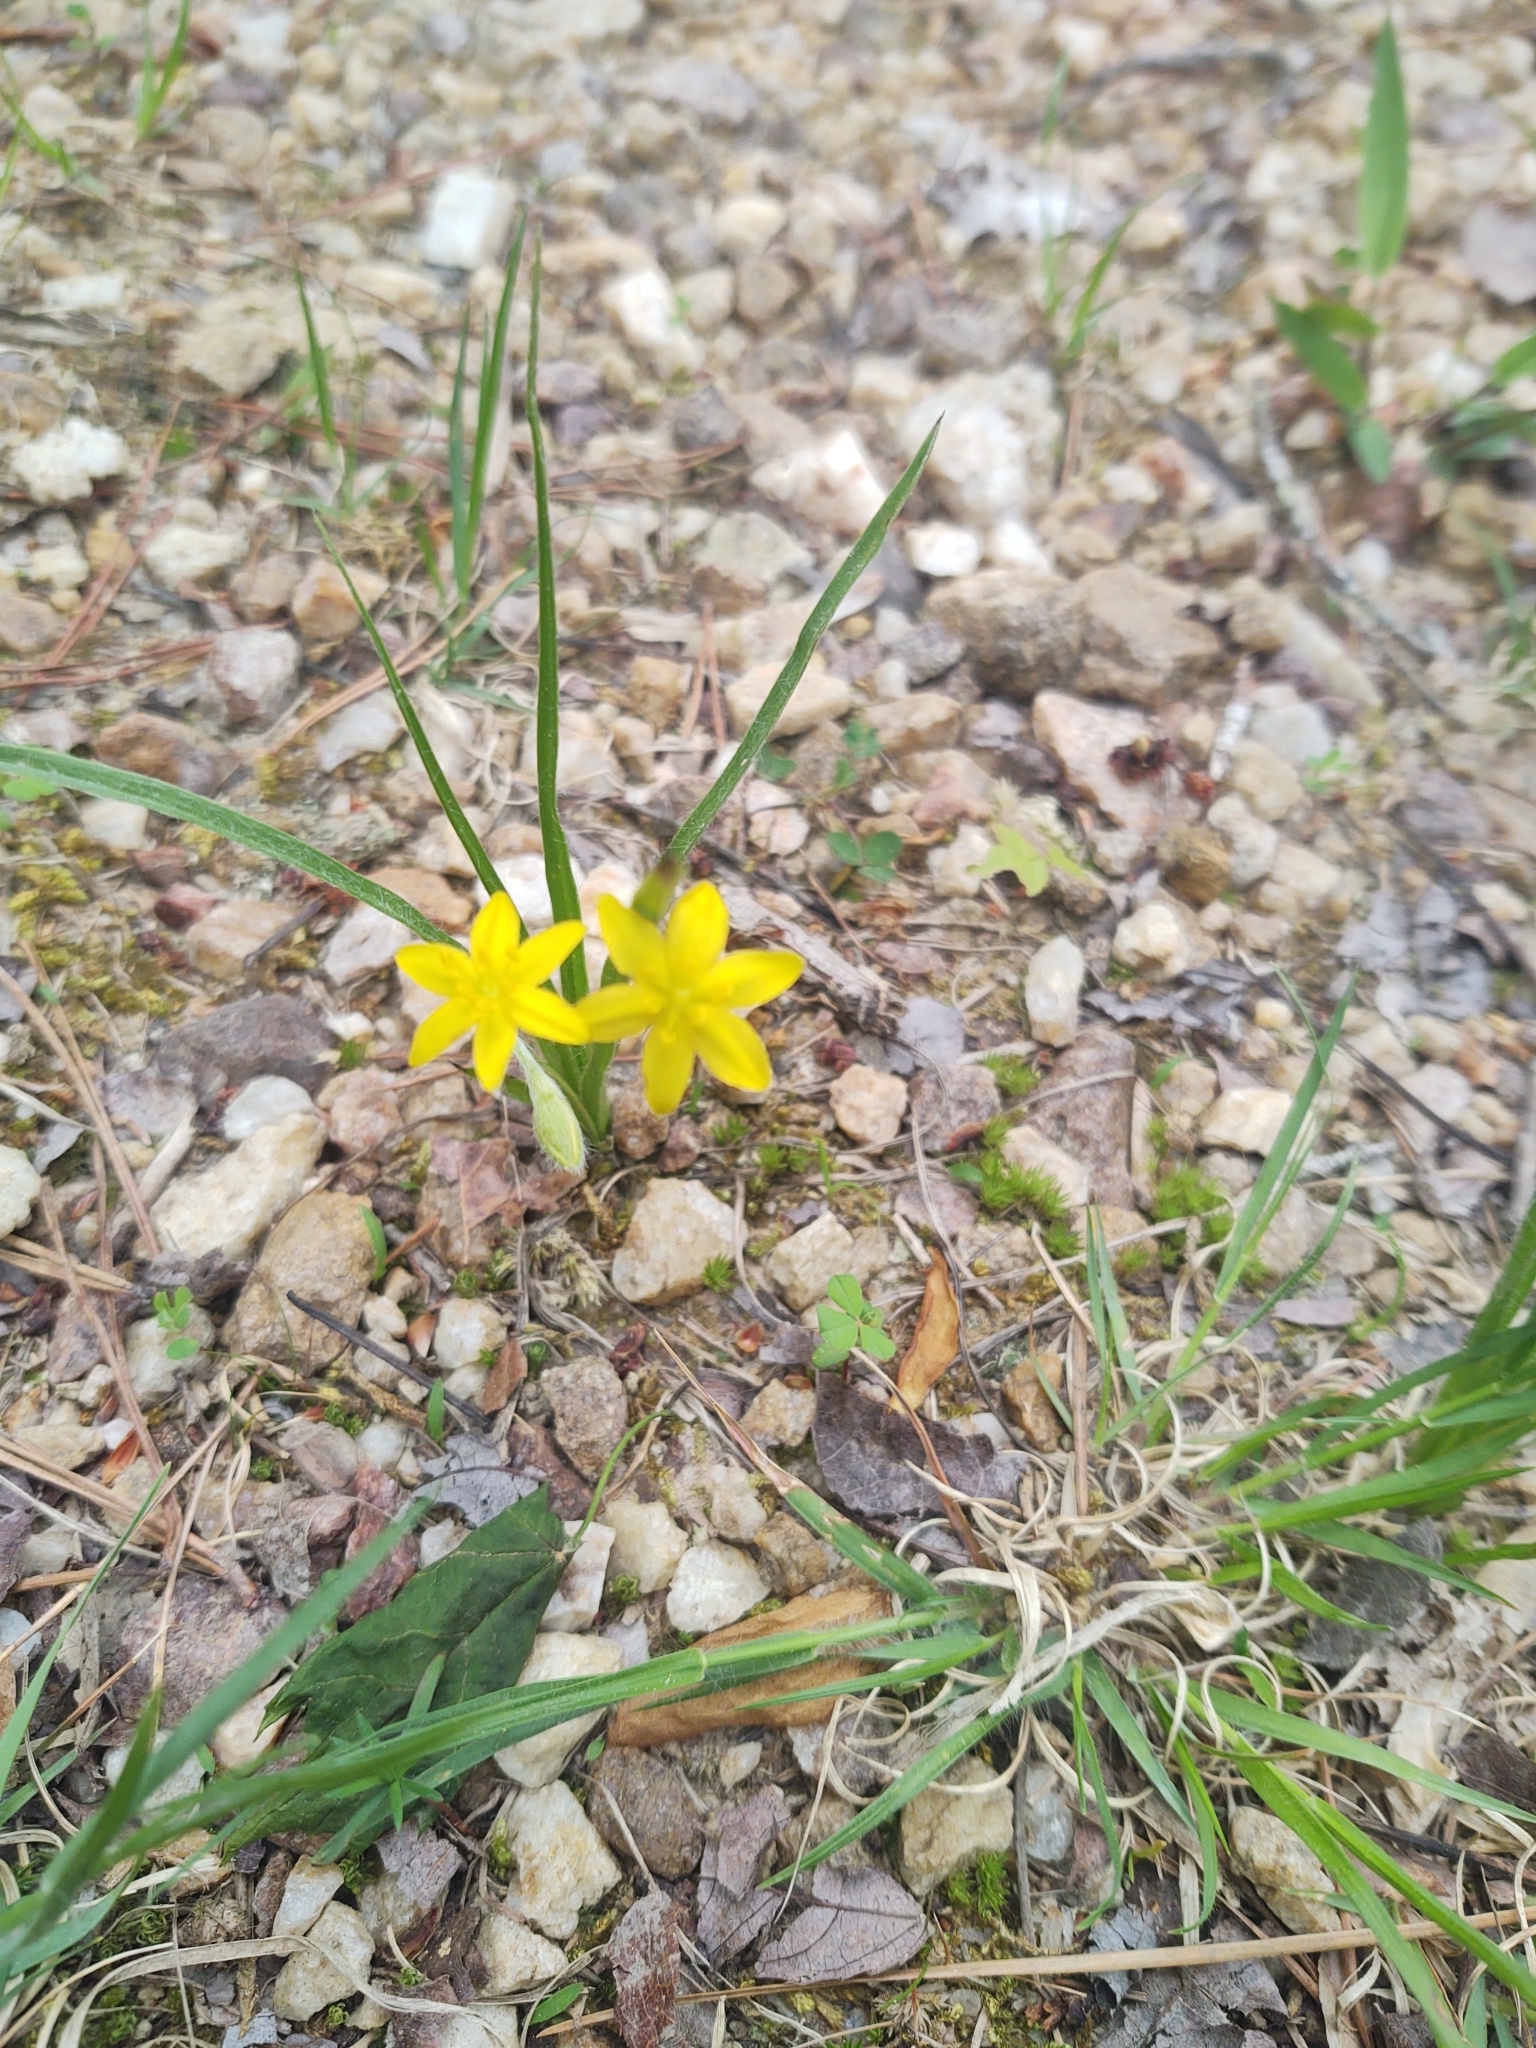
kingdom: Plantae
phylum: Tracheophyta
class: Liliopsida
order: Asparagales
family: Hypoxidaceae
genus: Hypoxis
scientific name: Hypoxis hirsuta
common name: Common goldstar
